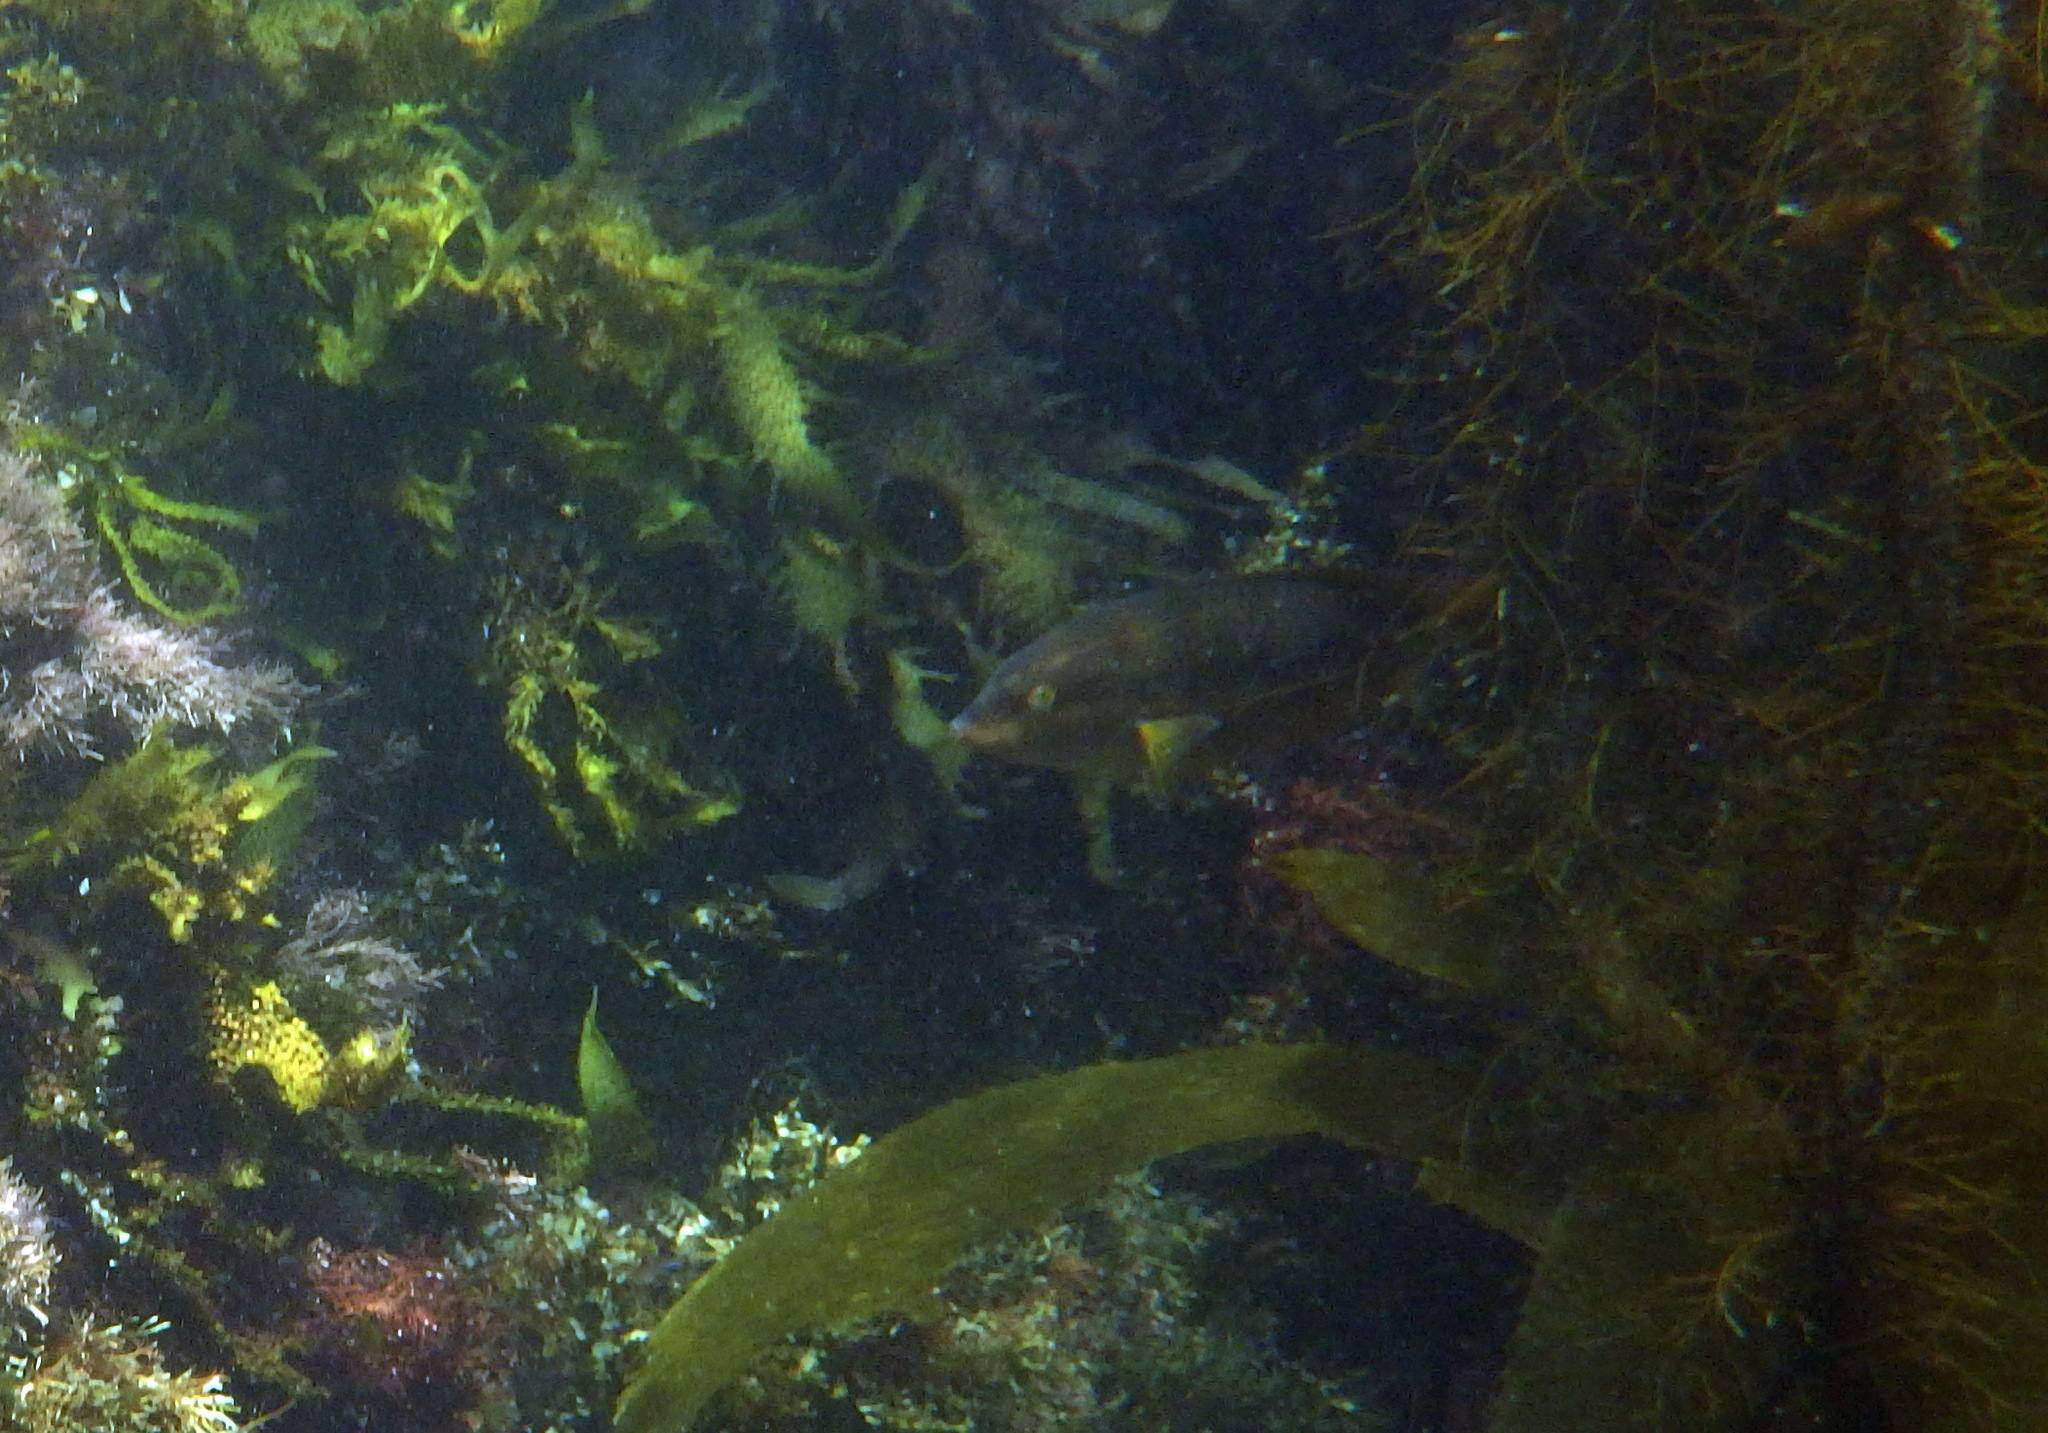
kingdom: Animalia
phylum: Chordata
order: Perciformes
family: Labridae
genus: Halichoeres
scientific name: Halichoeres semicinctus
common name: Rock wrasse
